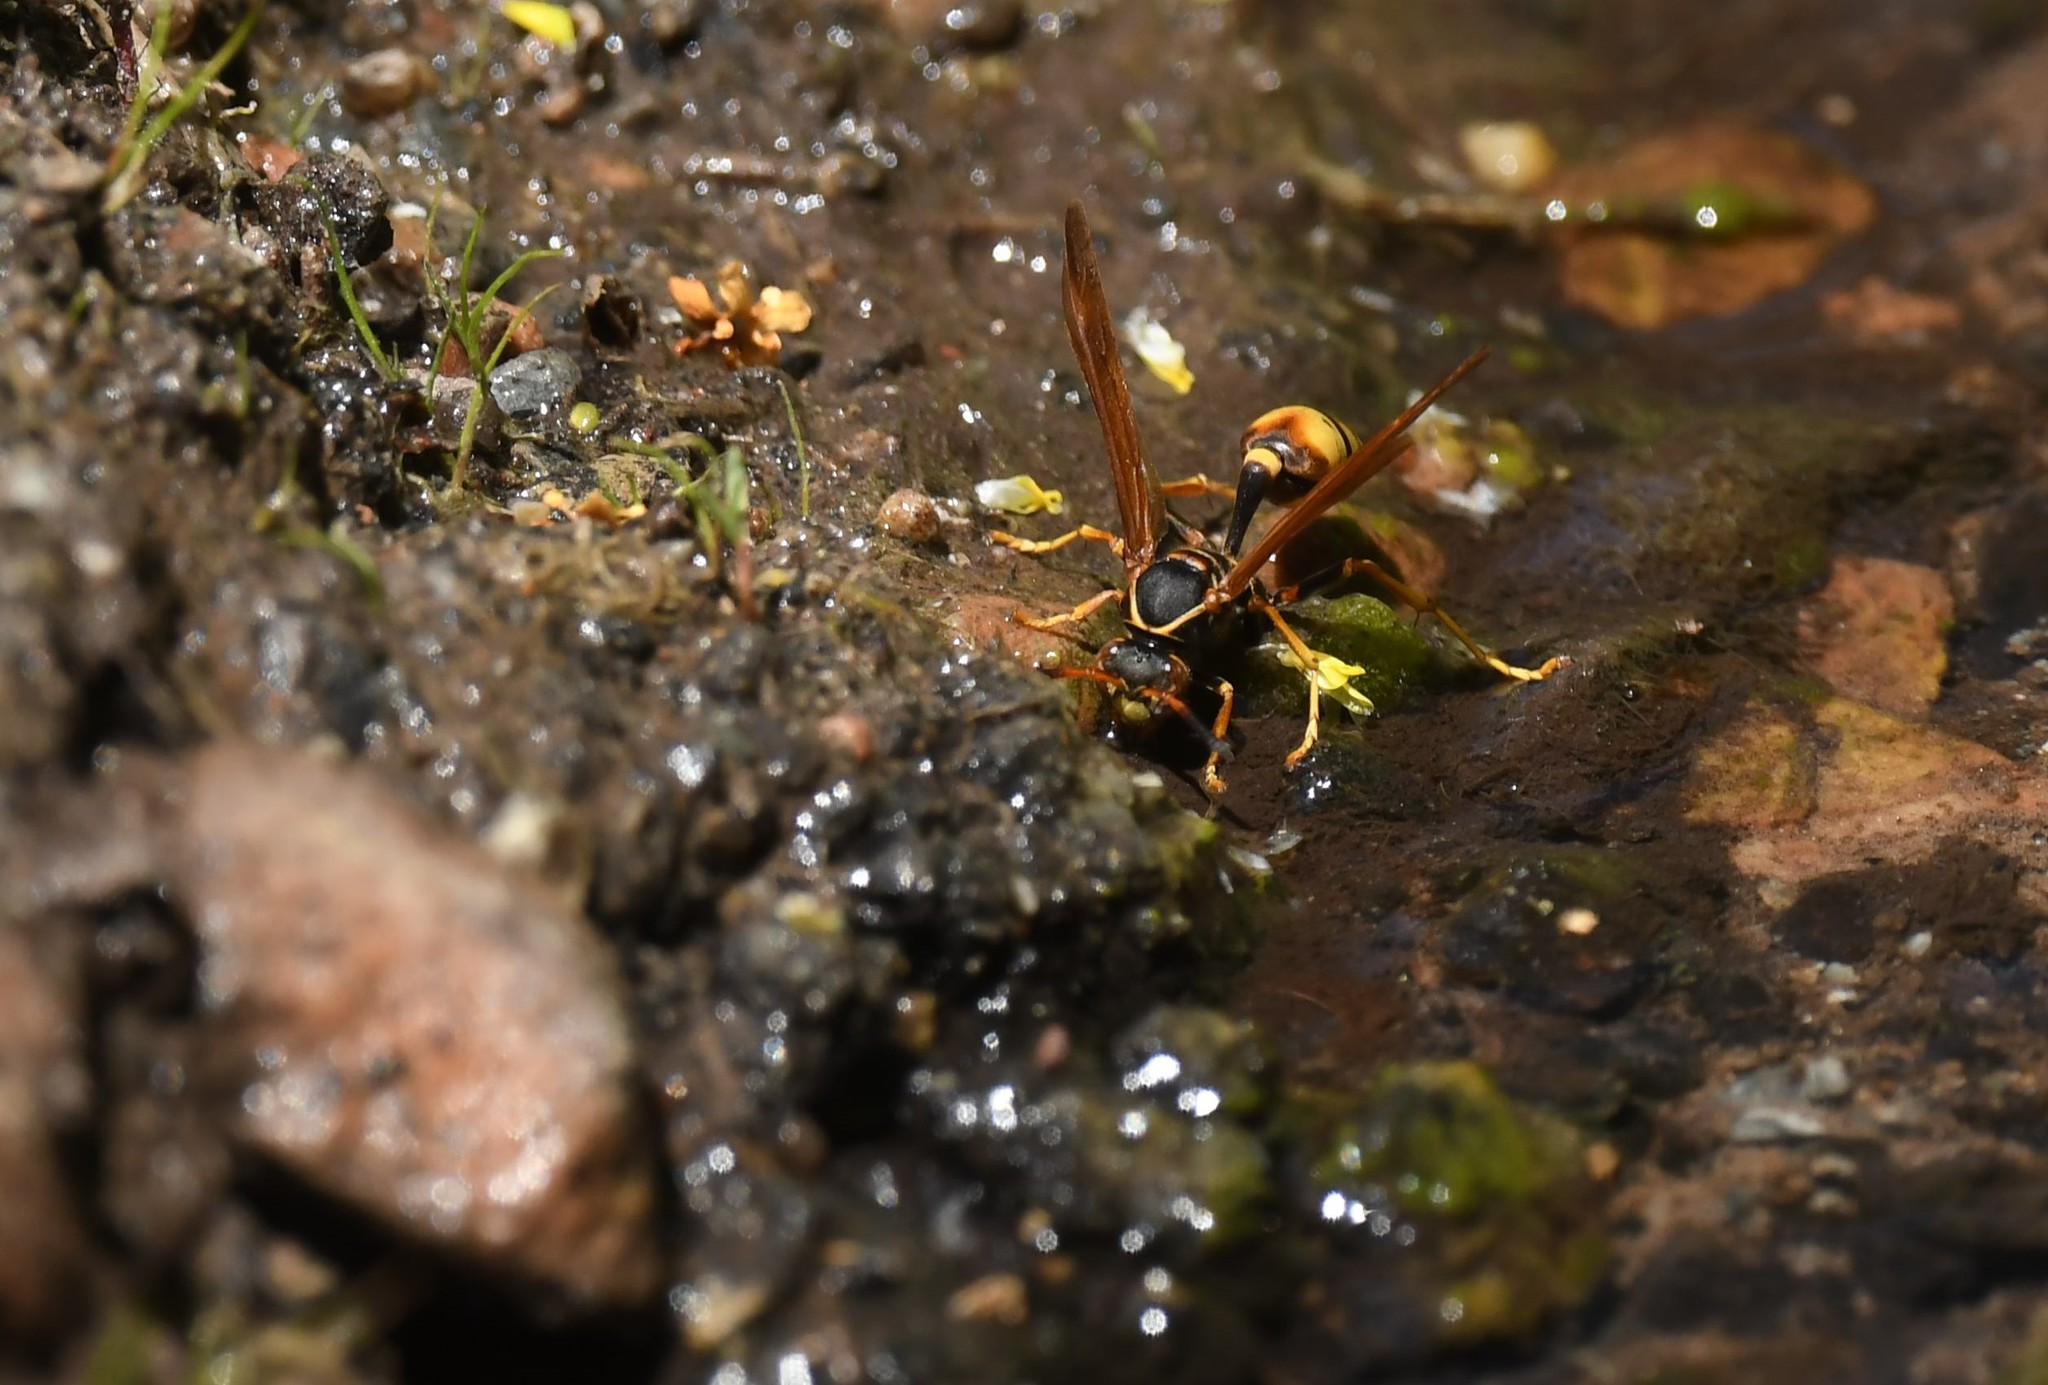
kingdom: Animalia
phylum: Arthropoda
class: Insecta
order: Hymenoptera
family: Vespidae
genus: Mischocyttarus
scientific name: Mischocyttarus flavitarsis
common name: Wasp
